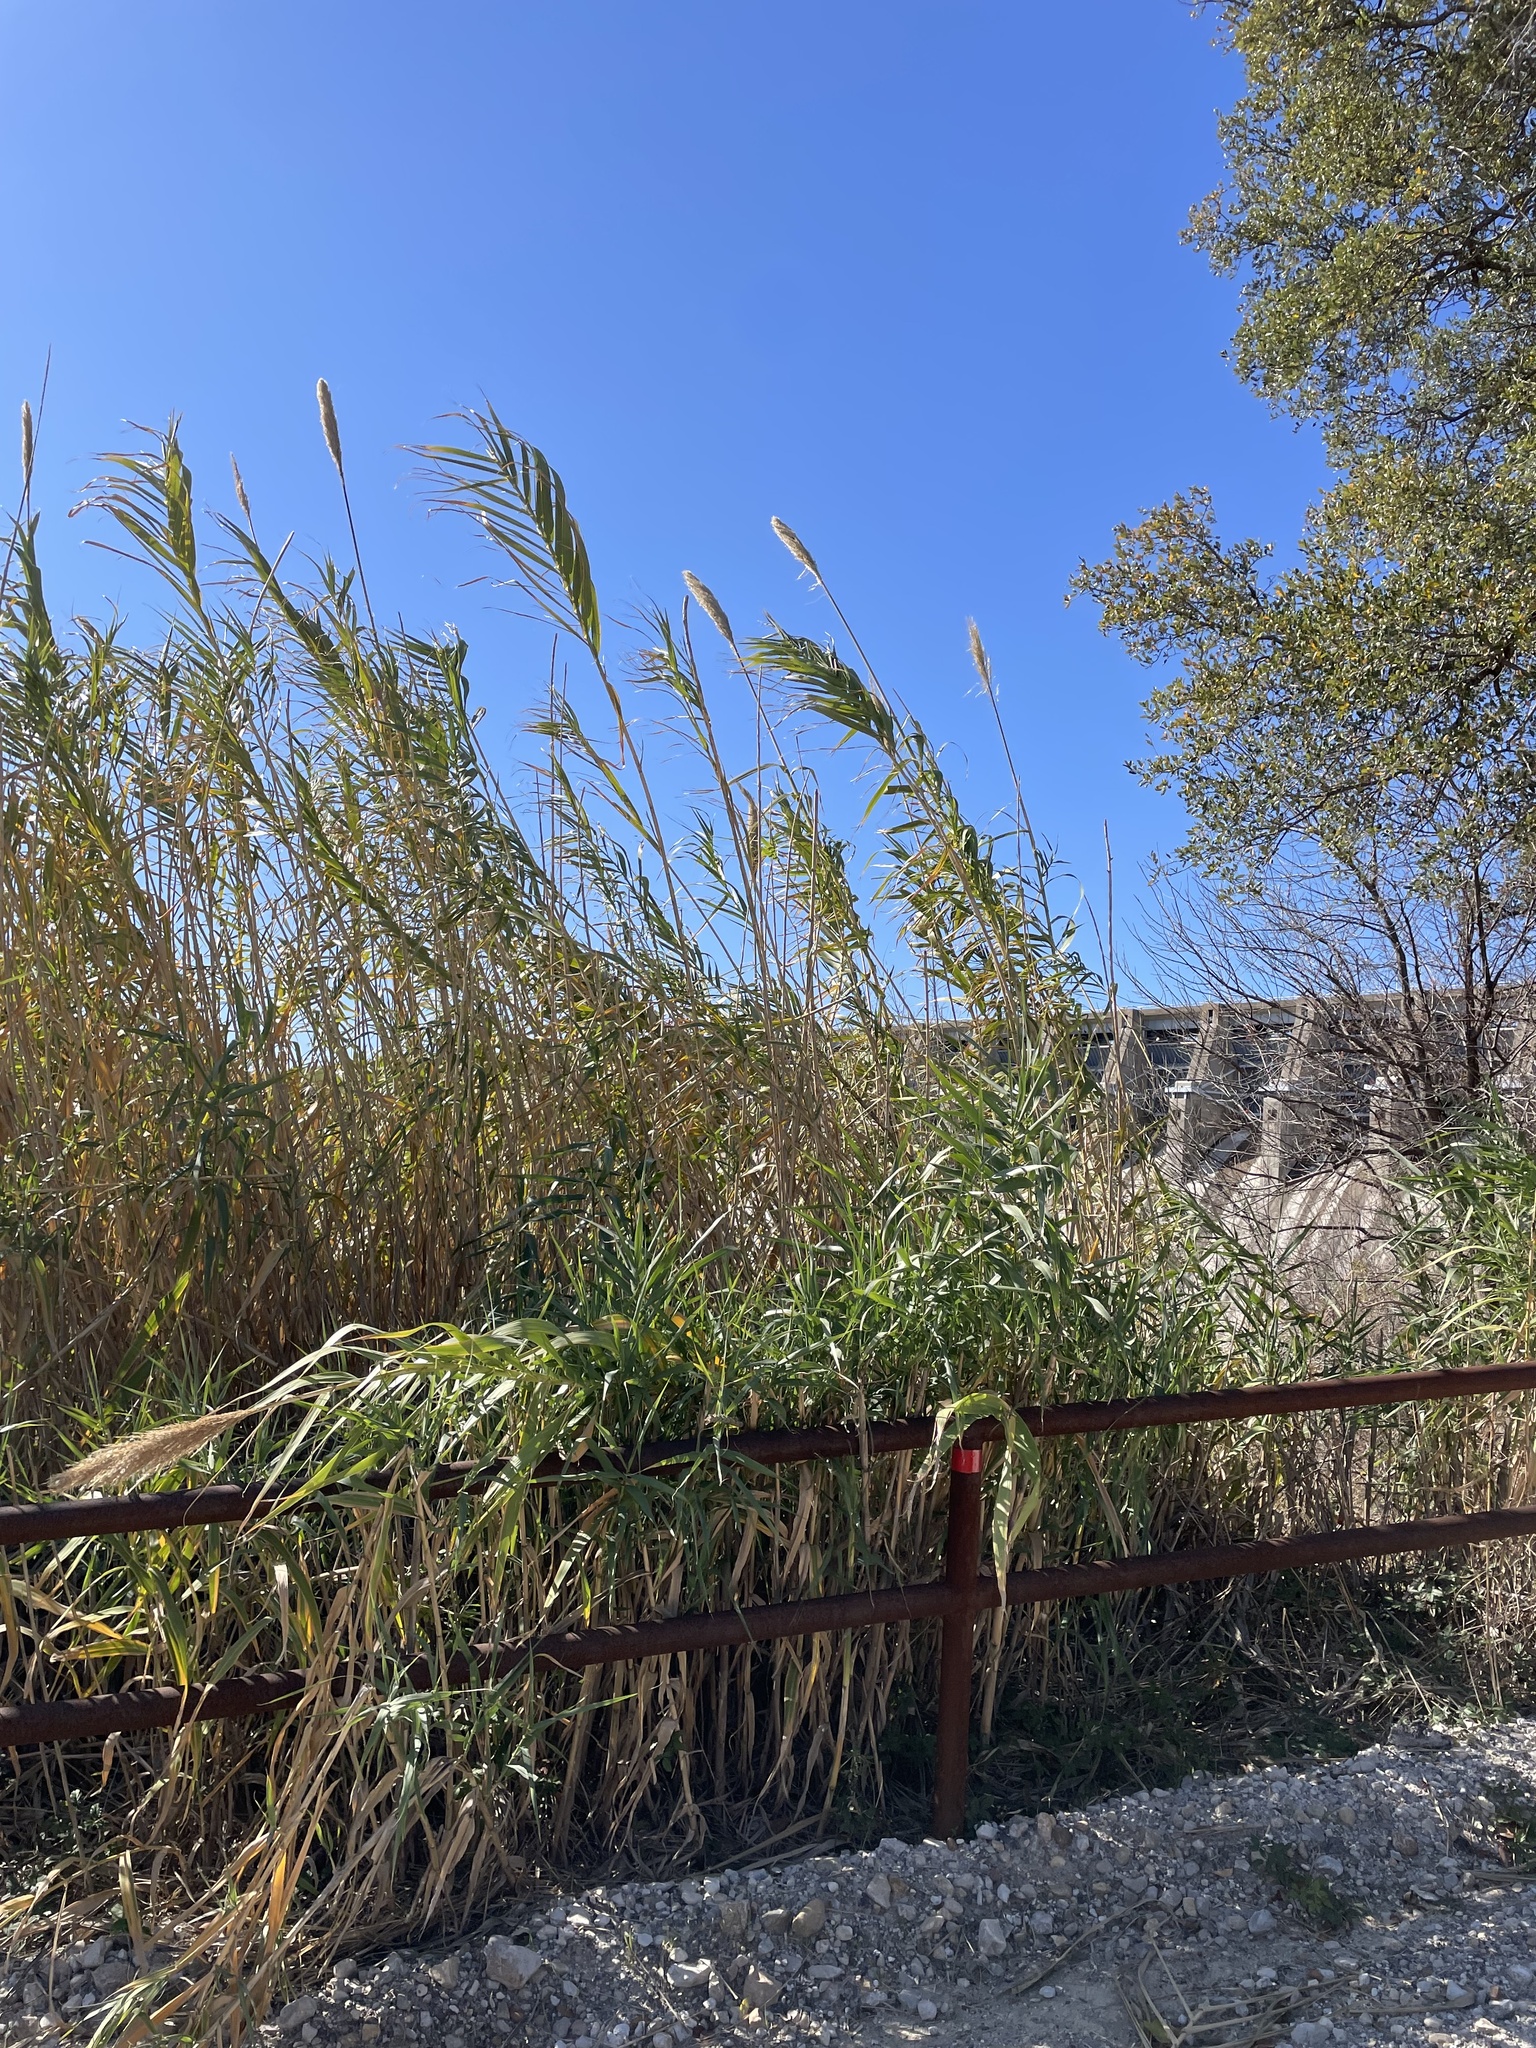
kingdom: Plantae
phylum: Tracheophyta
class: Liliopsida
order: Poales
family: Poaceae
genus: Arundo
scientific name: Arundo donax
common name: Giant reed
